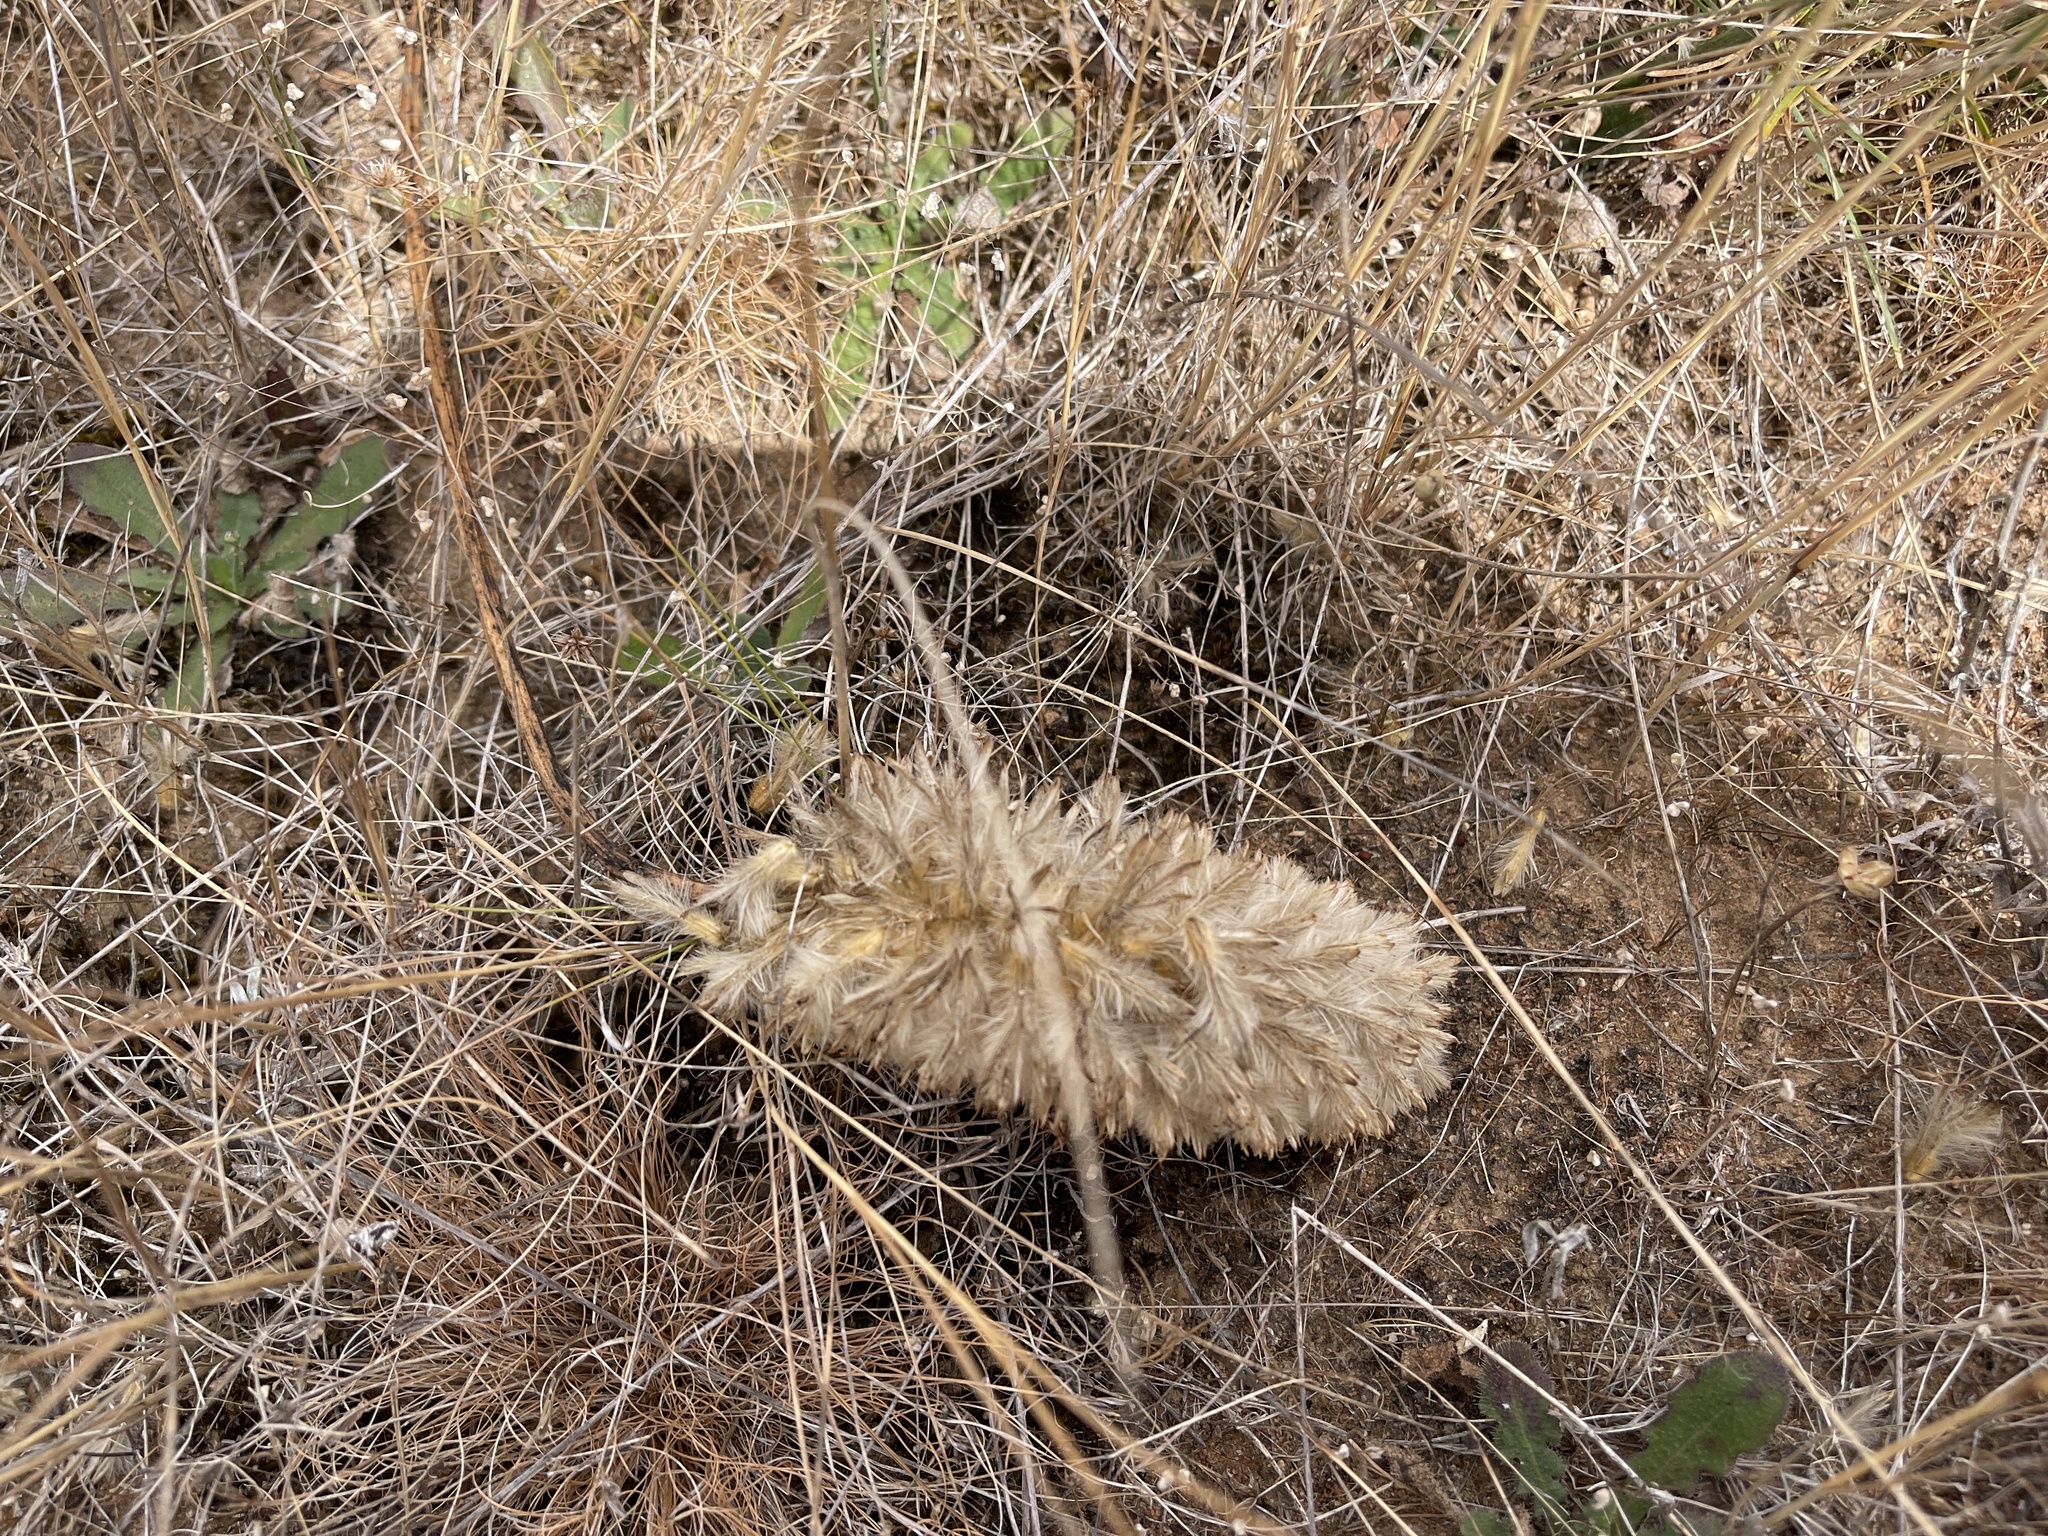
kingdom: Plantae
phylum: Tracheophyta
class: Magnoliopsida
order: Caryophyllales
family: Amaranthaceae
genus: Ptilotus
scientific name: Ptilotus macrocephalus
